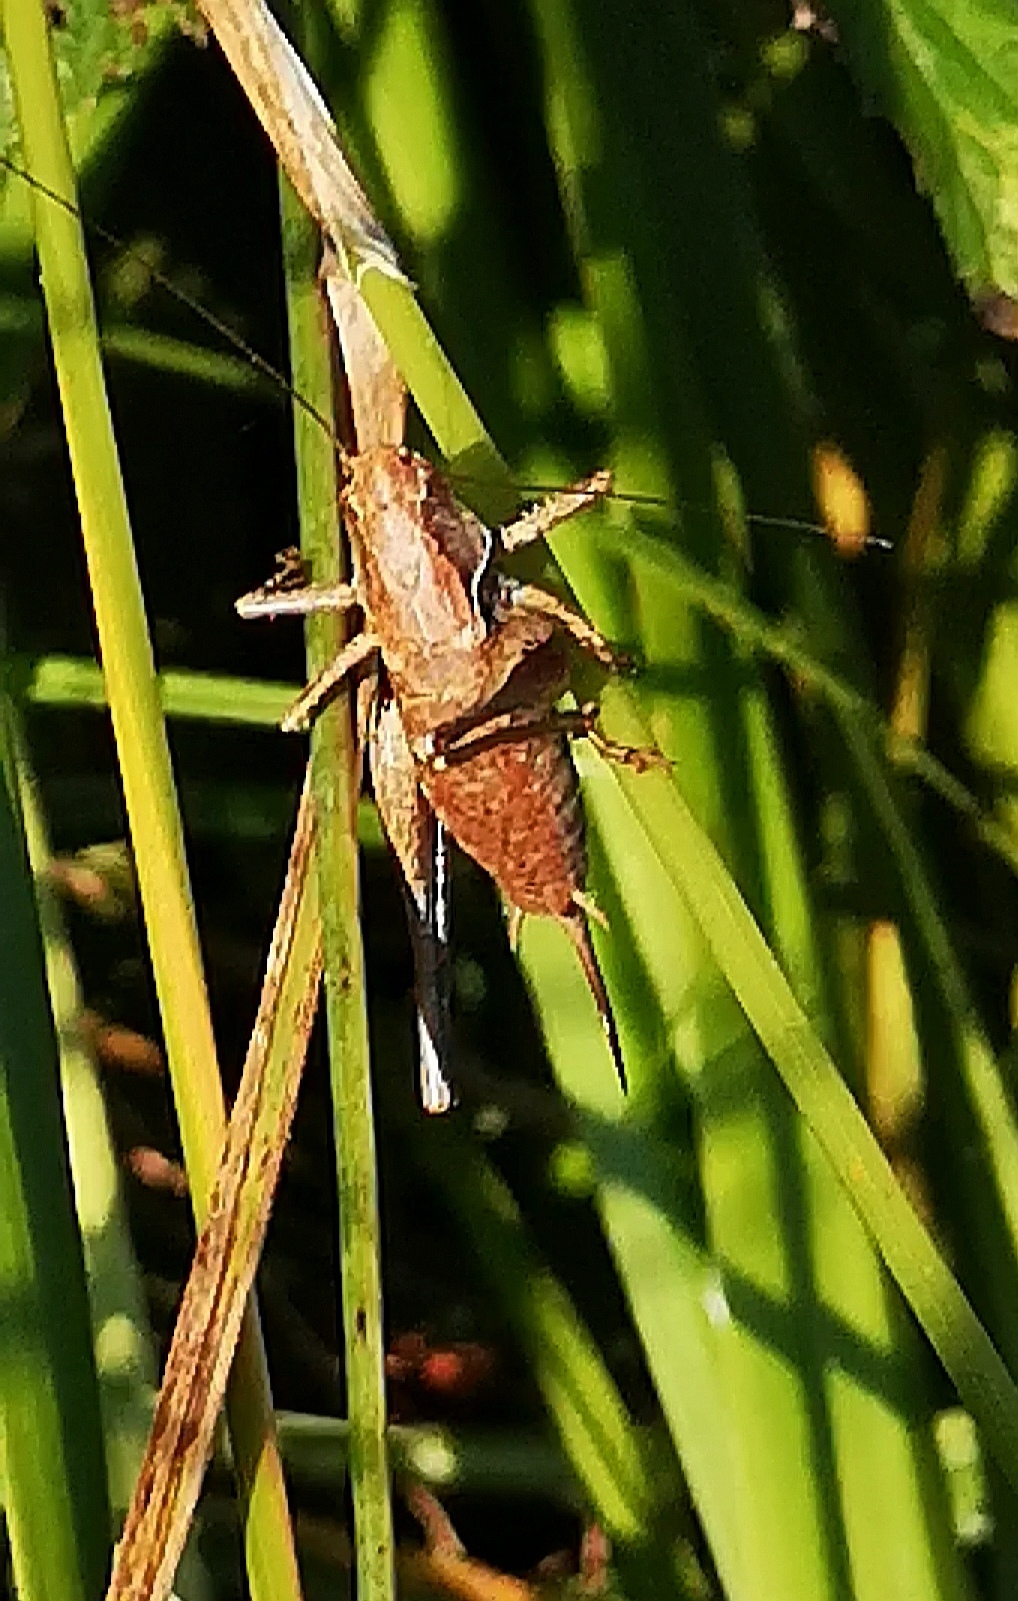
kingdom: Animalia
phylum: Arthropoda
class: Insecta
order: Orthoptera
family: Tettigoniidae
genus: Pholidoptera
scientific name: Pholidoptera griseoaptera
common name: Dark bush-cricket
